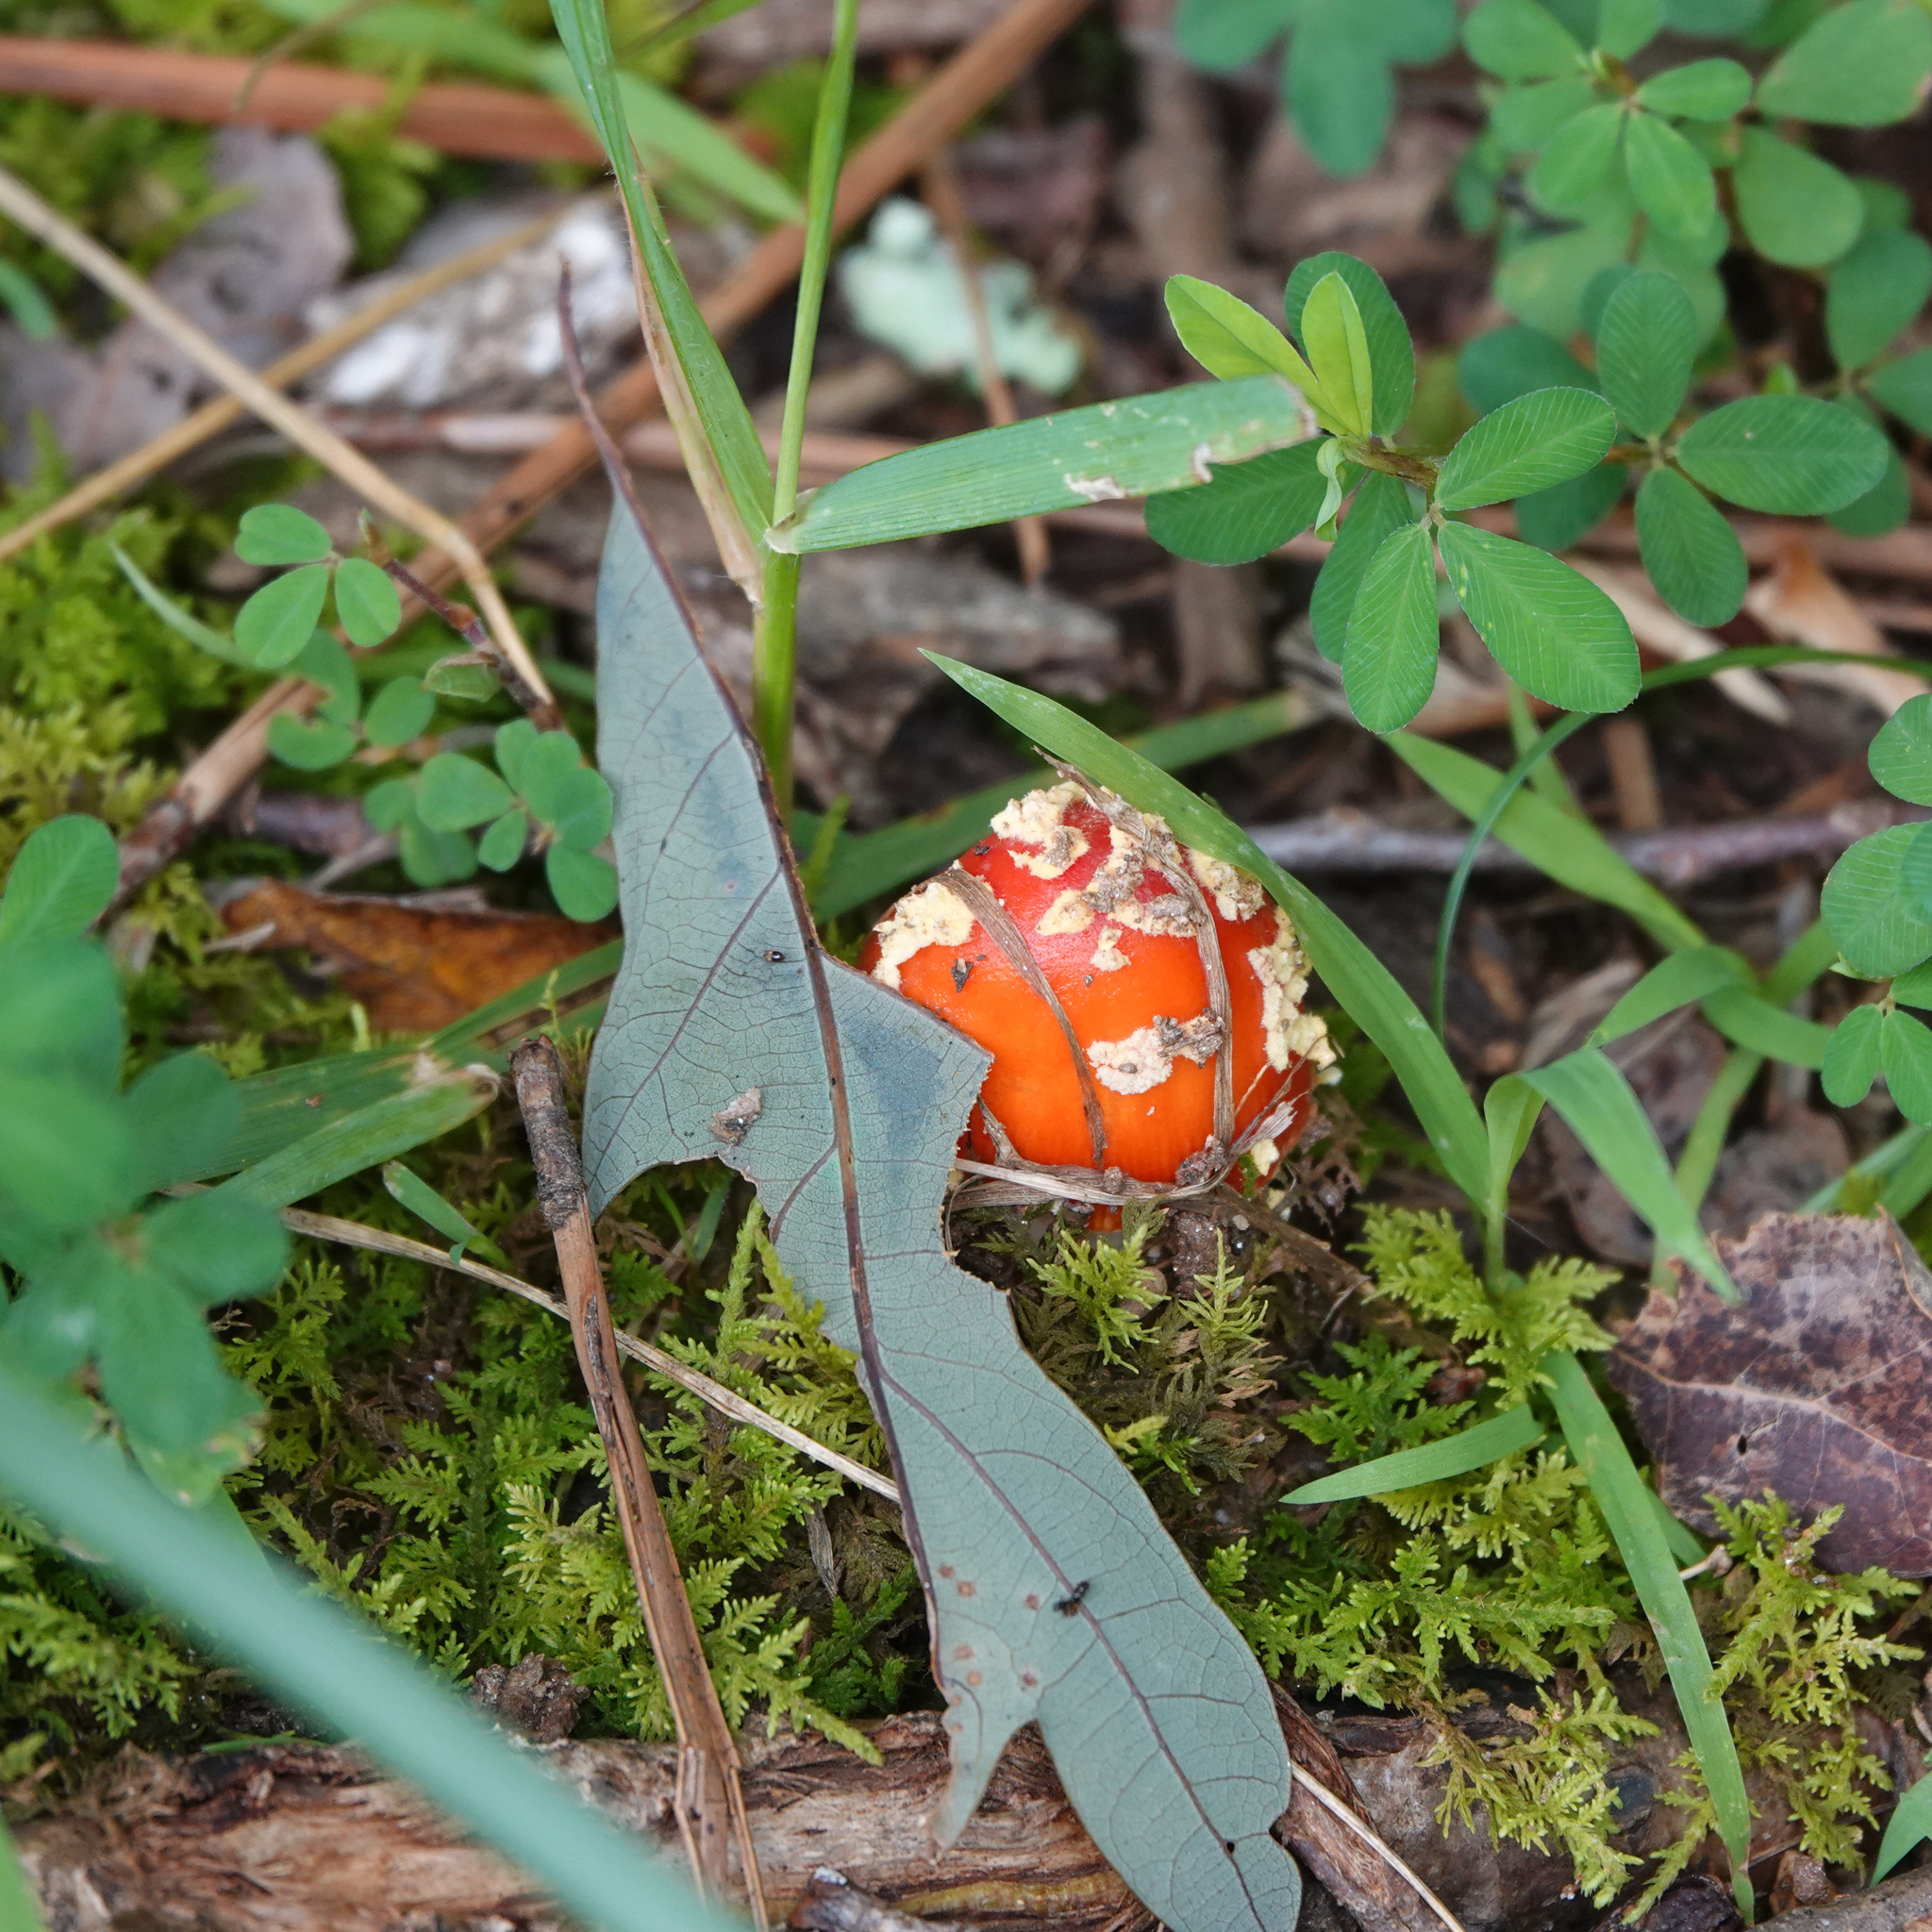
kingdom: Fungi
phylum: Basidiomycota
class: Agaricomycetes
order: Agaricales
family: Amanitaceae
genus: Amanita
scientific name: Amanita parcivolvata
